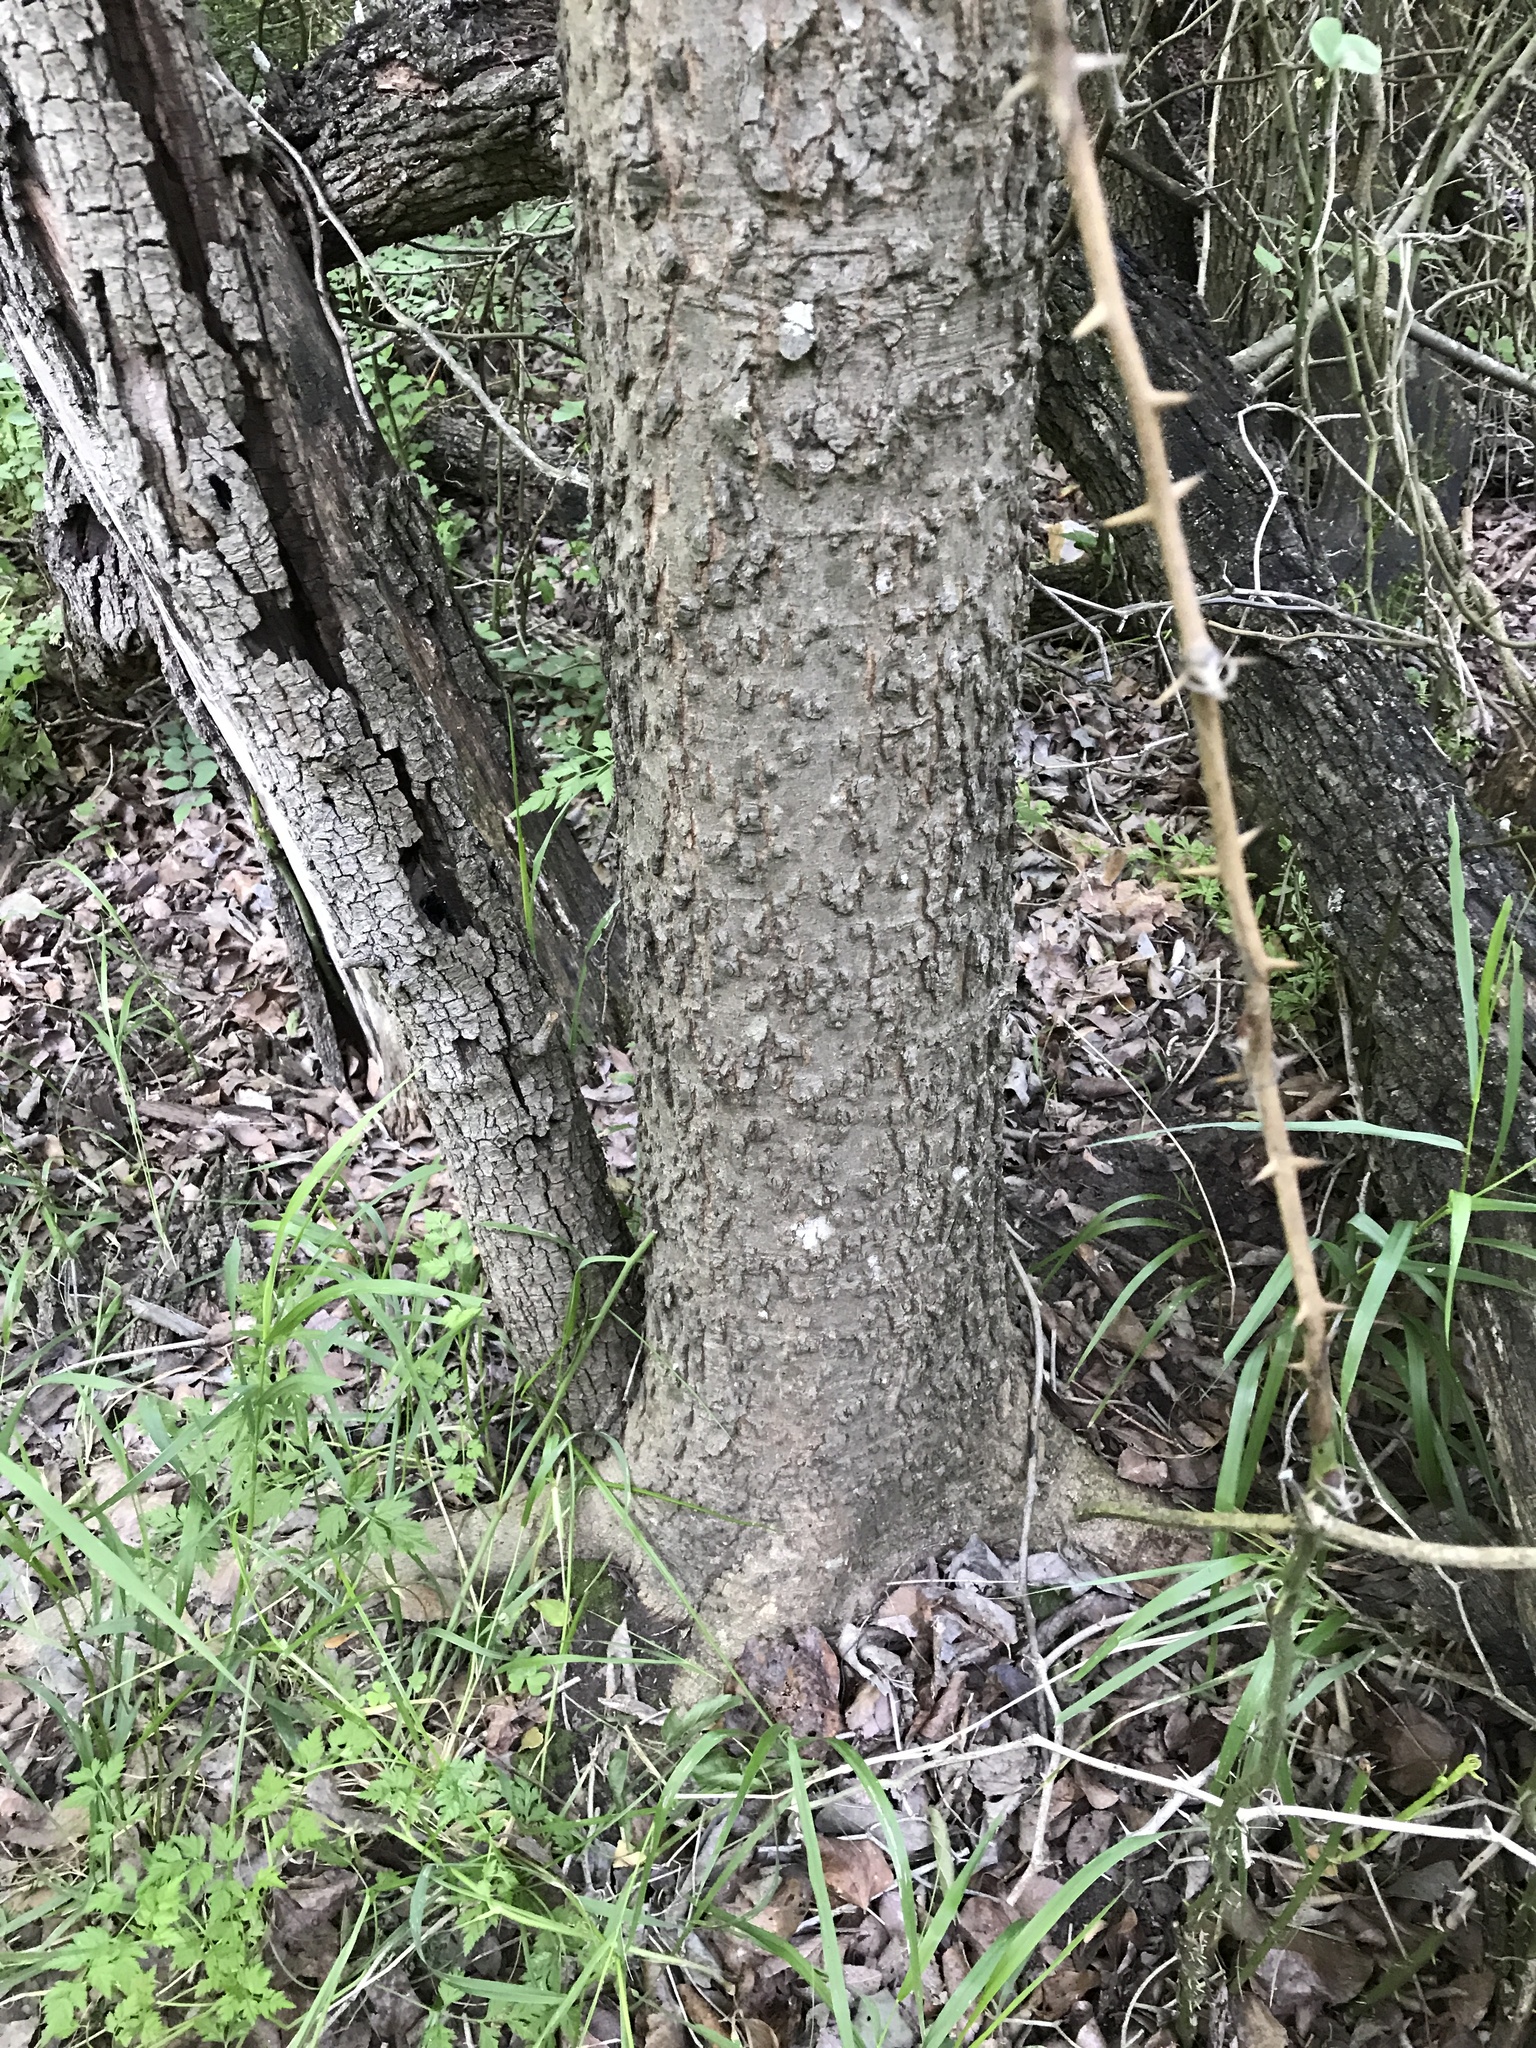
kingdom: Plantae
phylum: Tracheophyta
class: Magnoliopsida
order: Rosales
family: Cannabaceae
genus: Celtis
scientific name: Celtis laevigata
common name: Sugarberry
